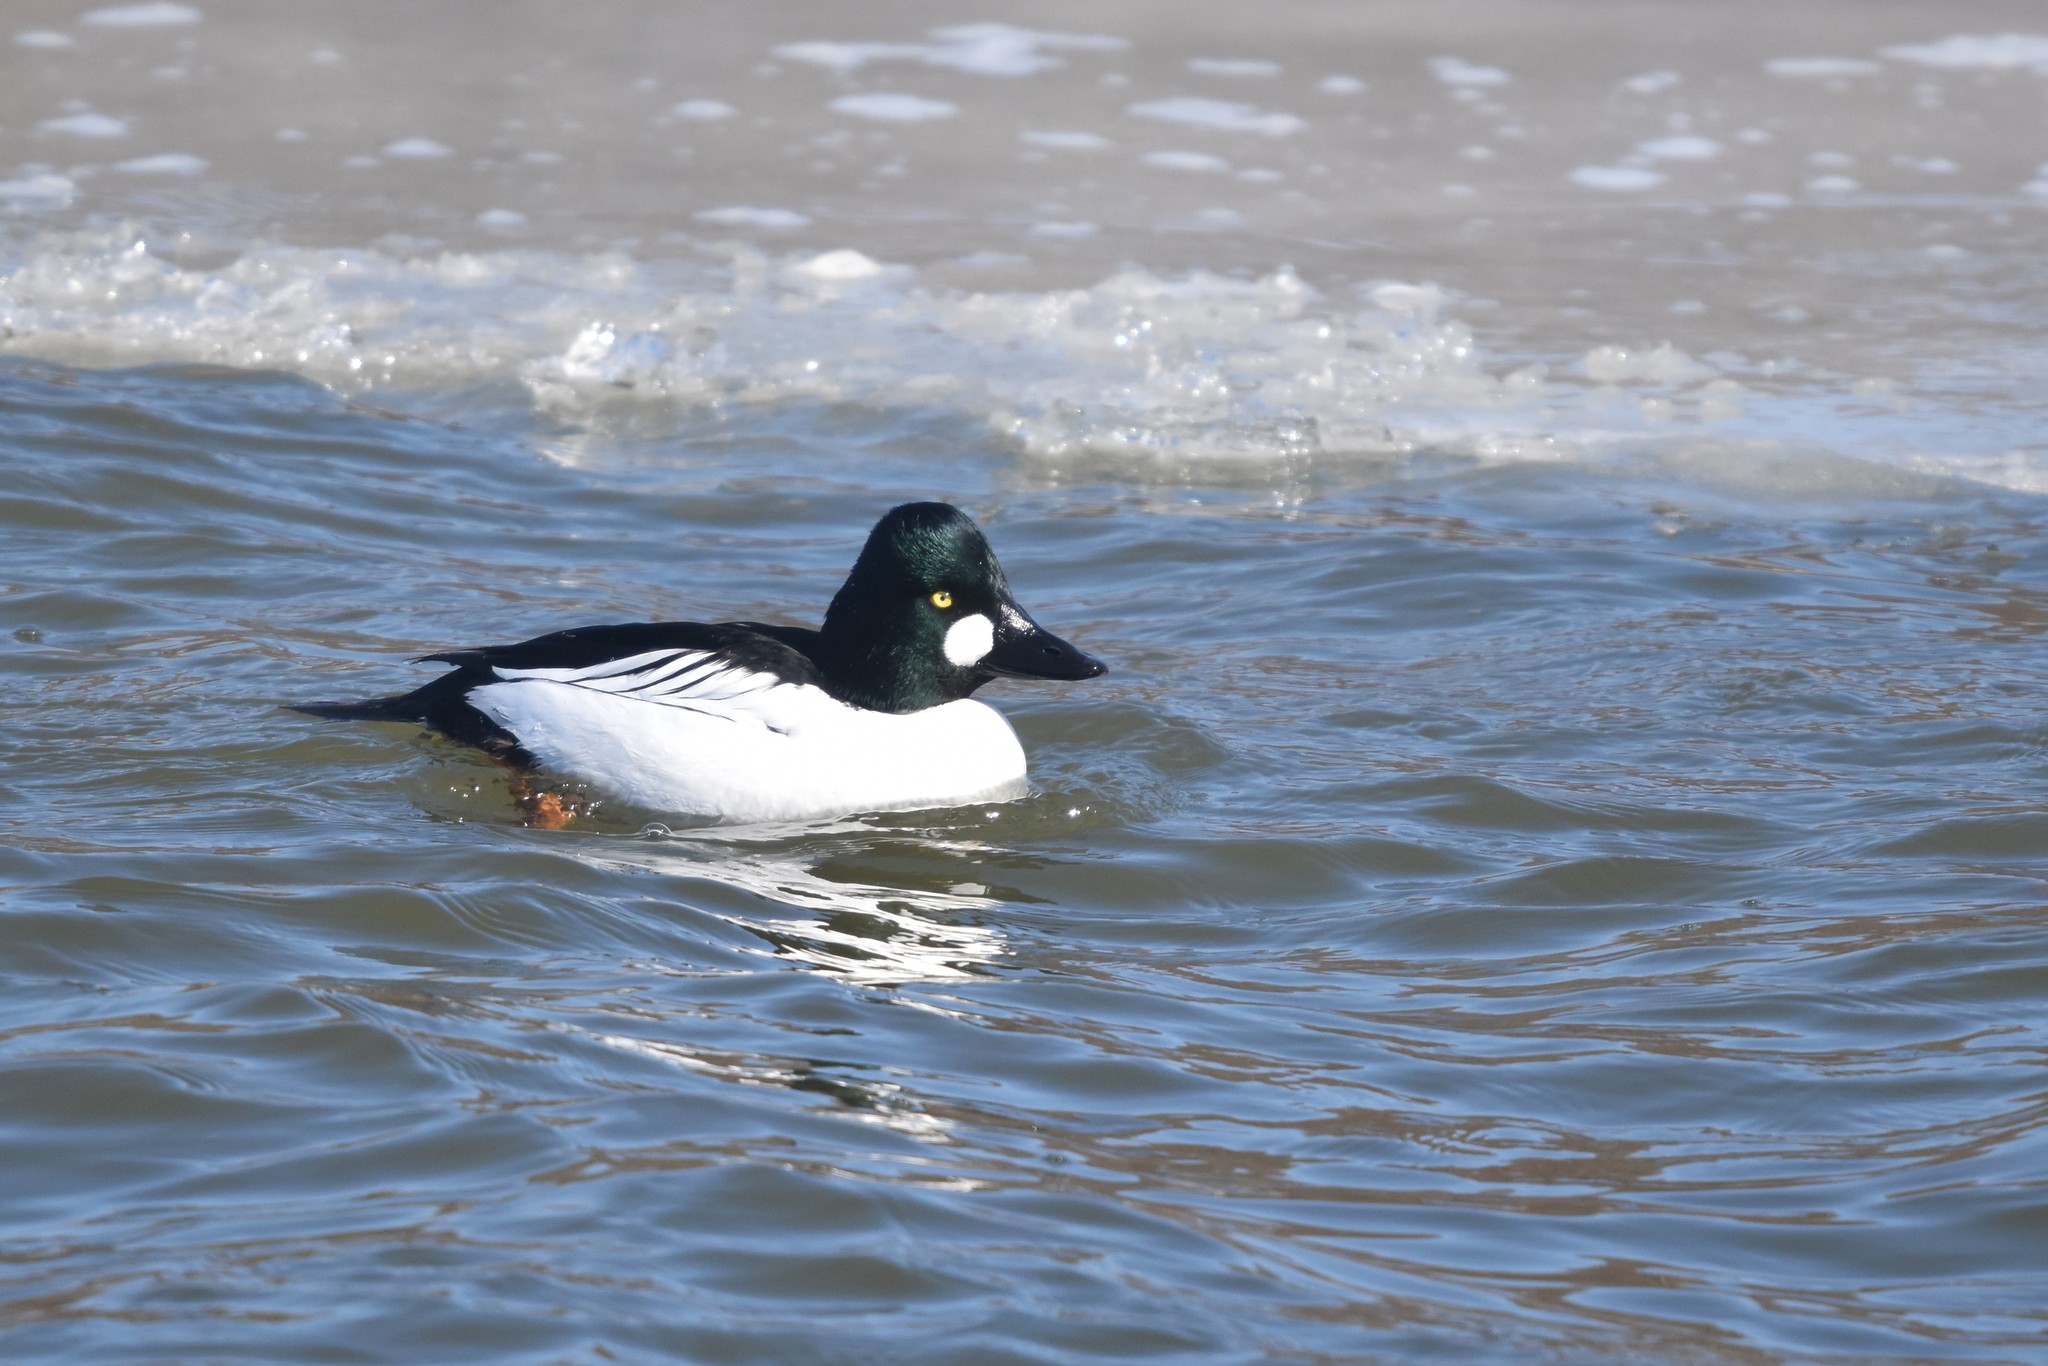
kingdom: Animalia
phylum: Chordata
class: Aves
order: Anseriformes
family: Anatidae
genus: Bucephala
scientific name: Bucephala clangula
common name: Common goldeneye
